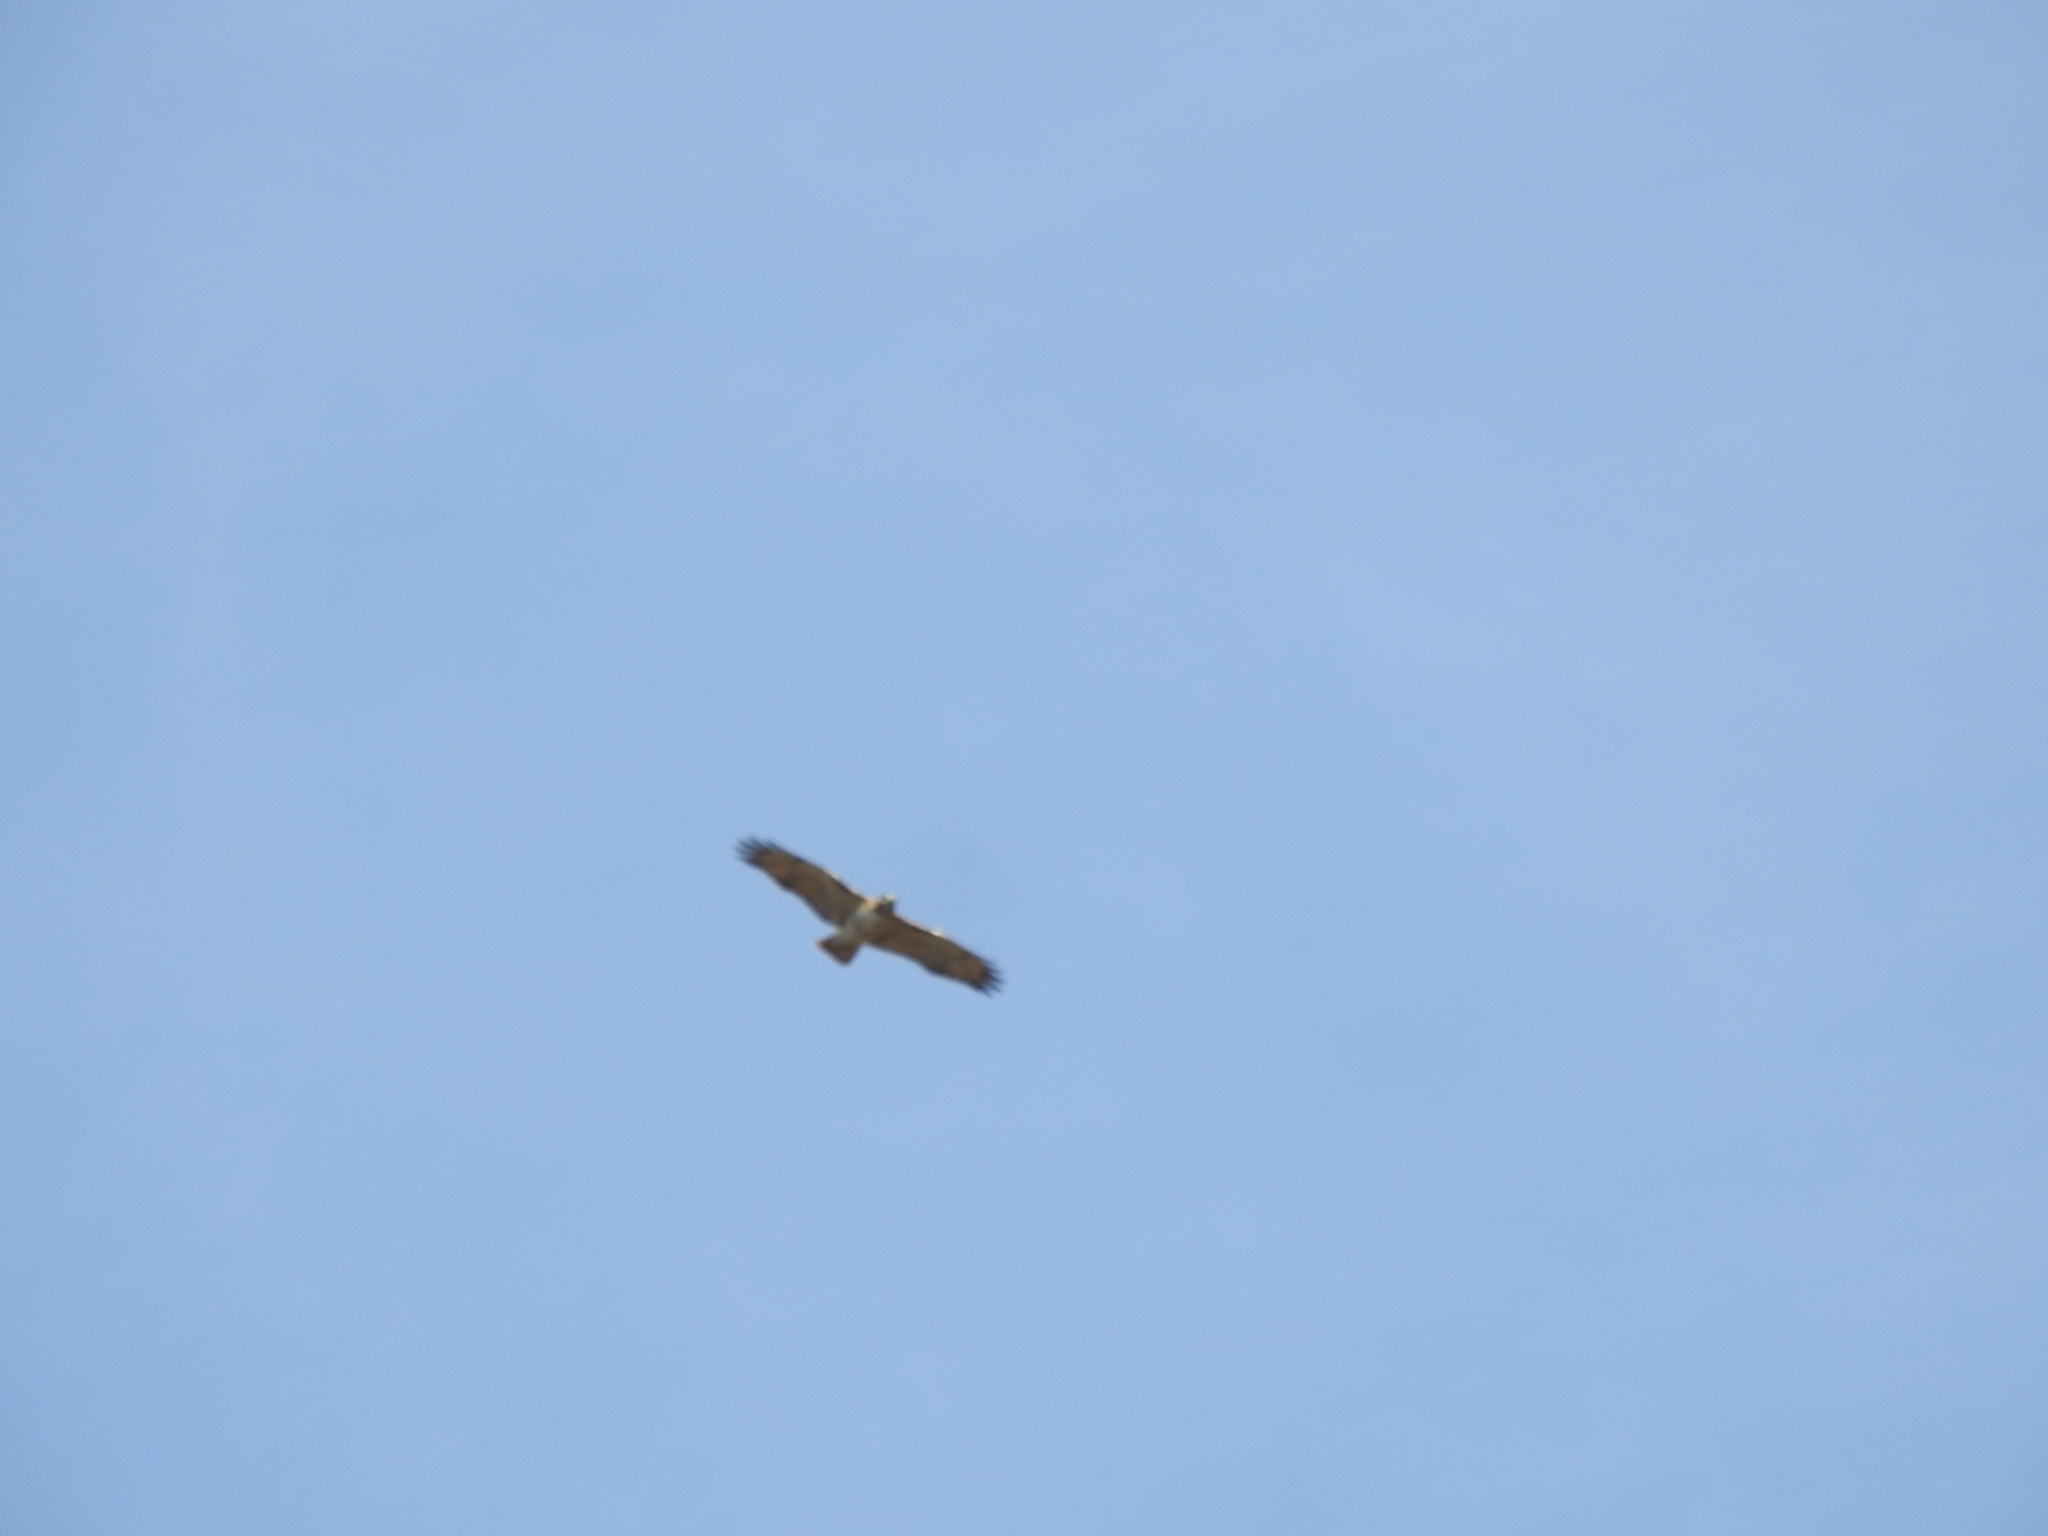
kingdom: Animalia
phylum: Chordata
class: Aves
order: Accipitriformes
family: Accipitridae
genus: Buteo
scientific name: Buteo jamaicensis
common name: Red-tailed hawk
